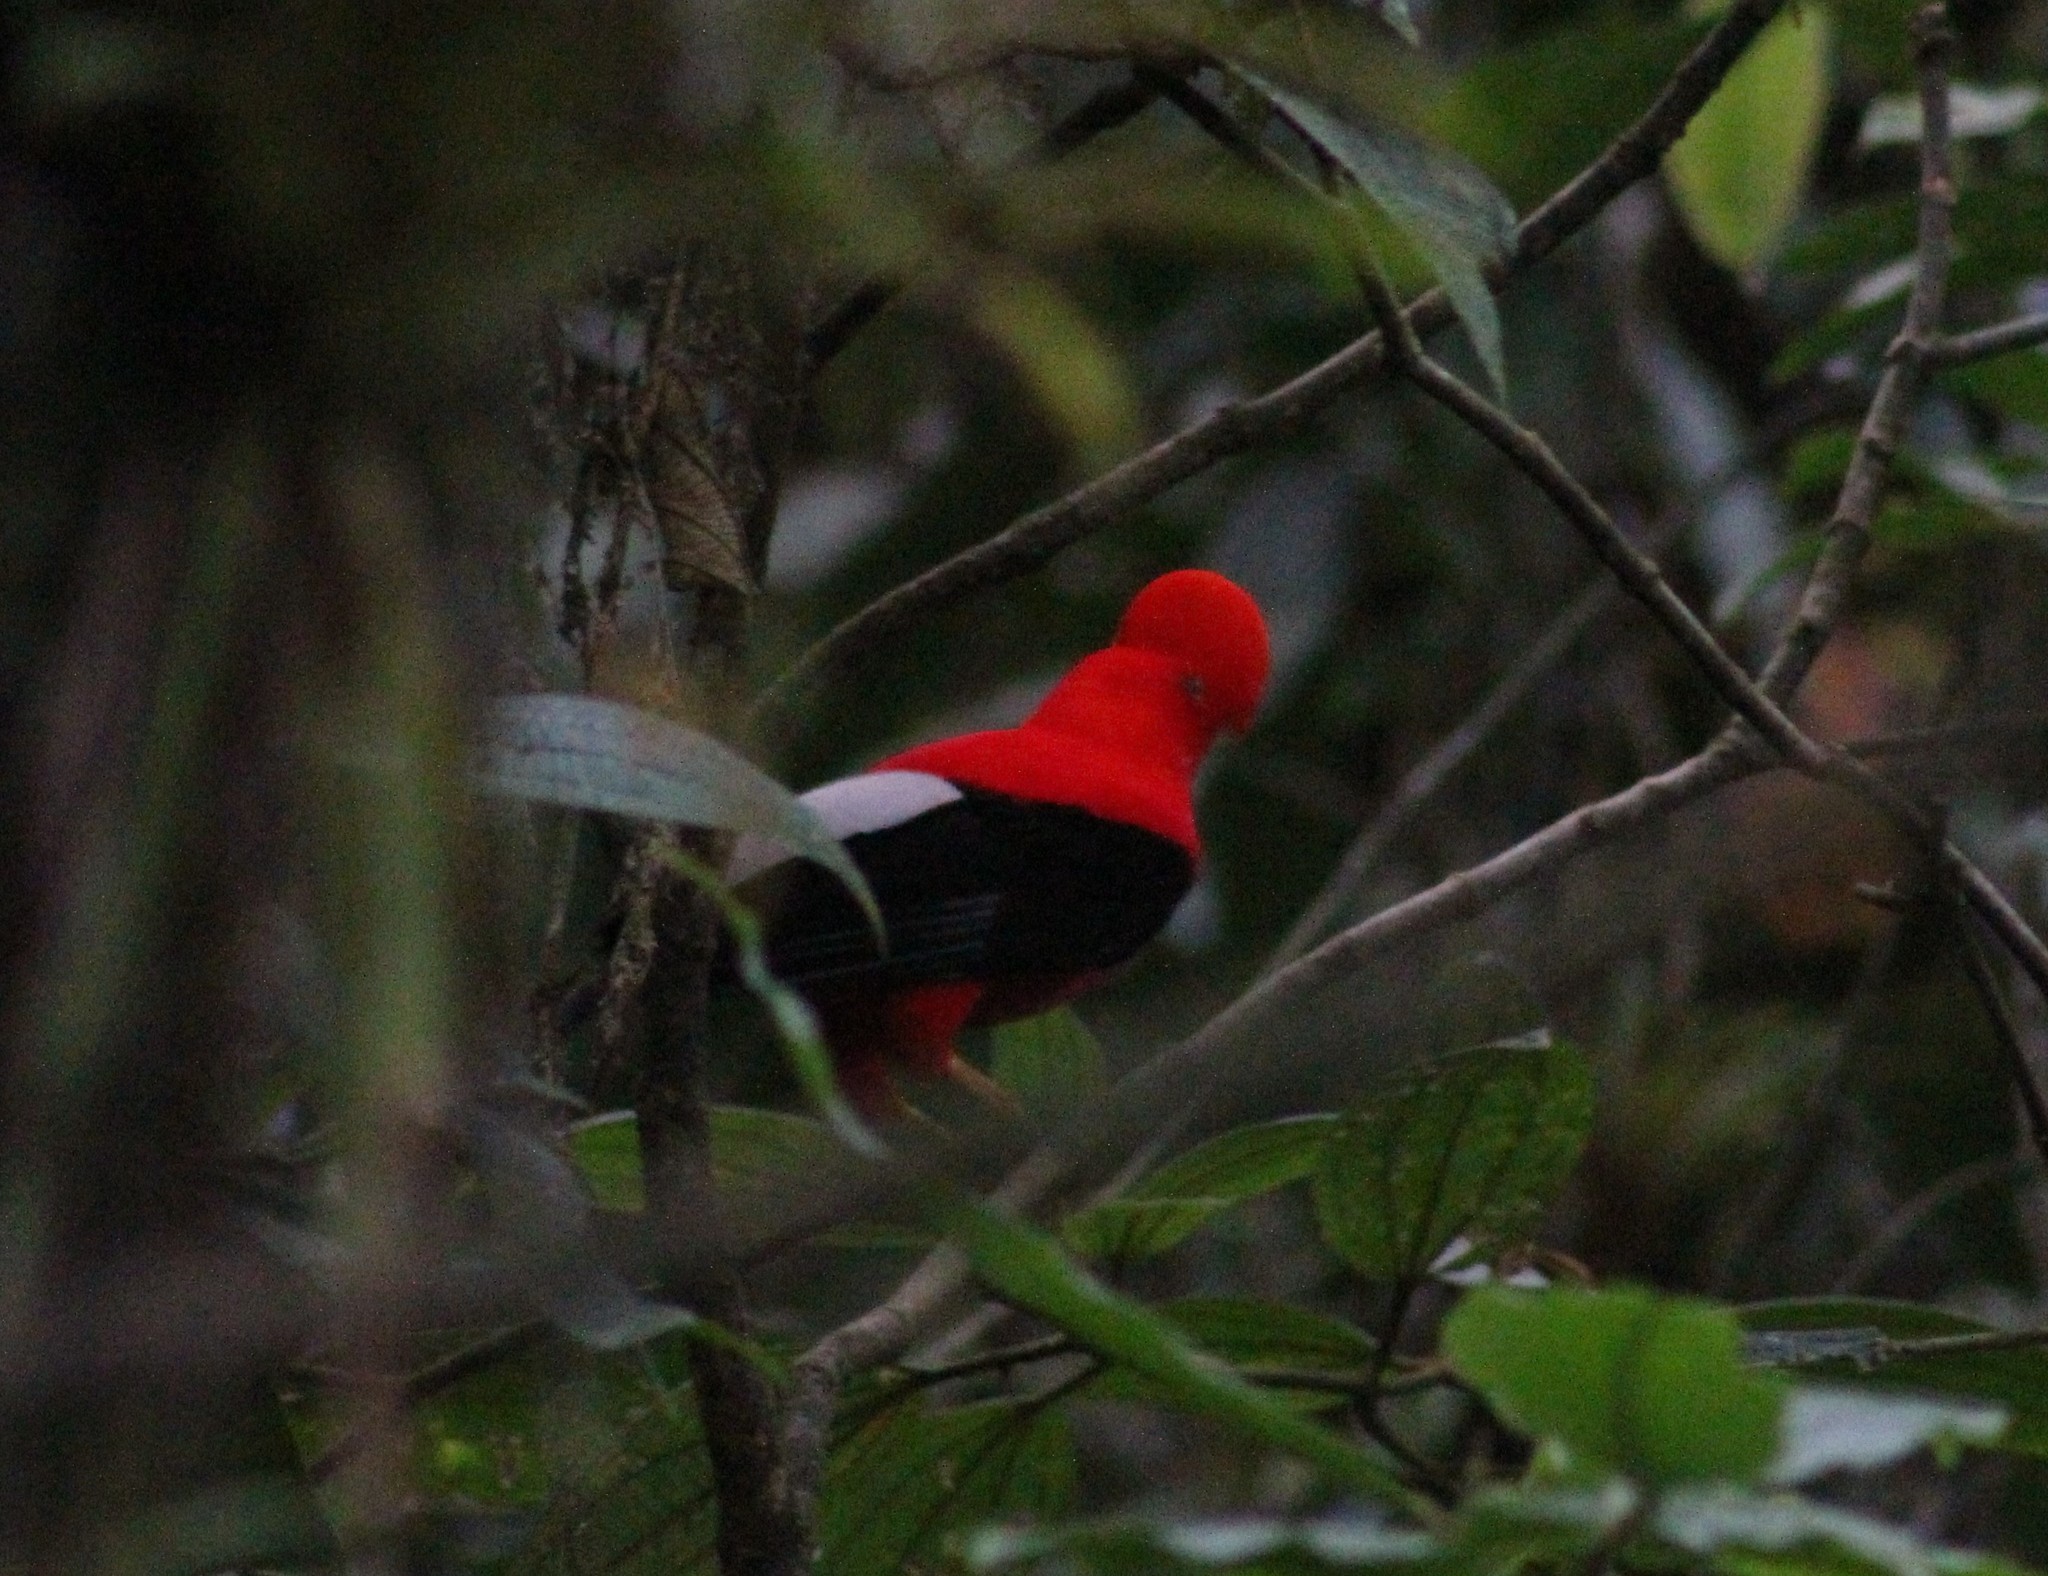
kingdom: Animalia
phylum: Chordata
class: Aves
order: Passeriformes
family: Cotingidae
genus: Rupicola
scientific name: Rupicola peruvianus
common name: Andean cock-of-the-rock
